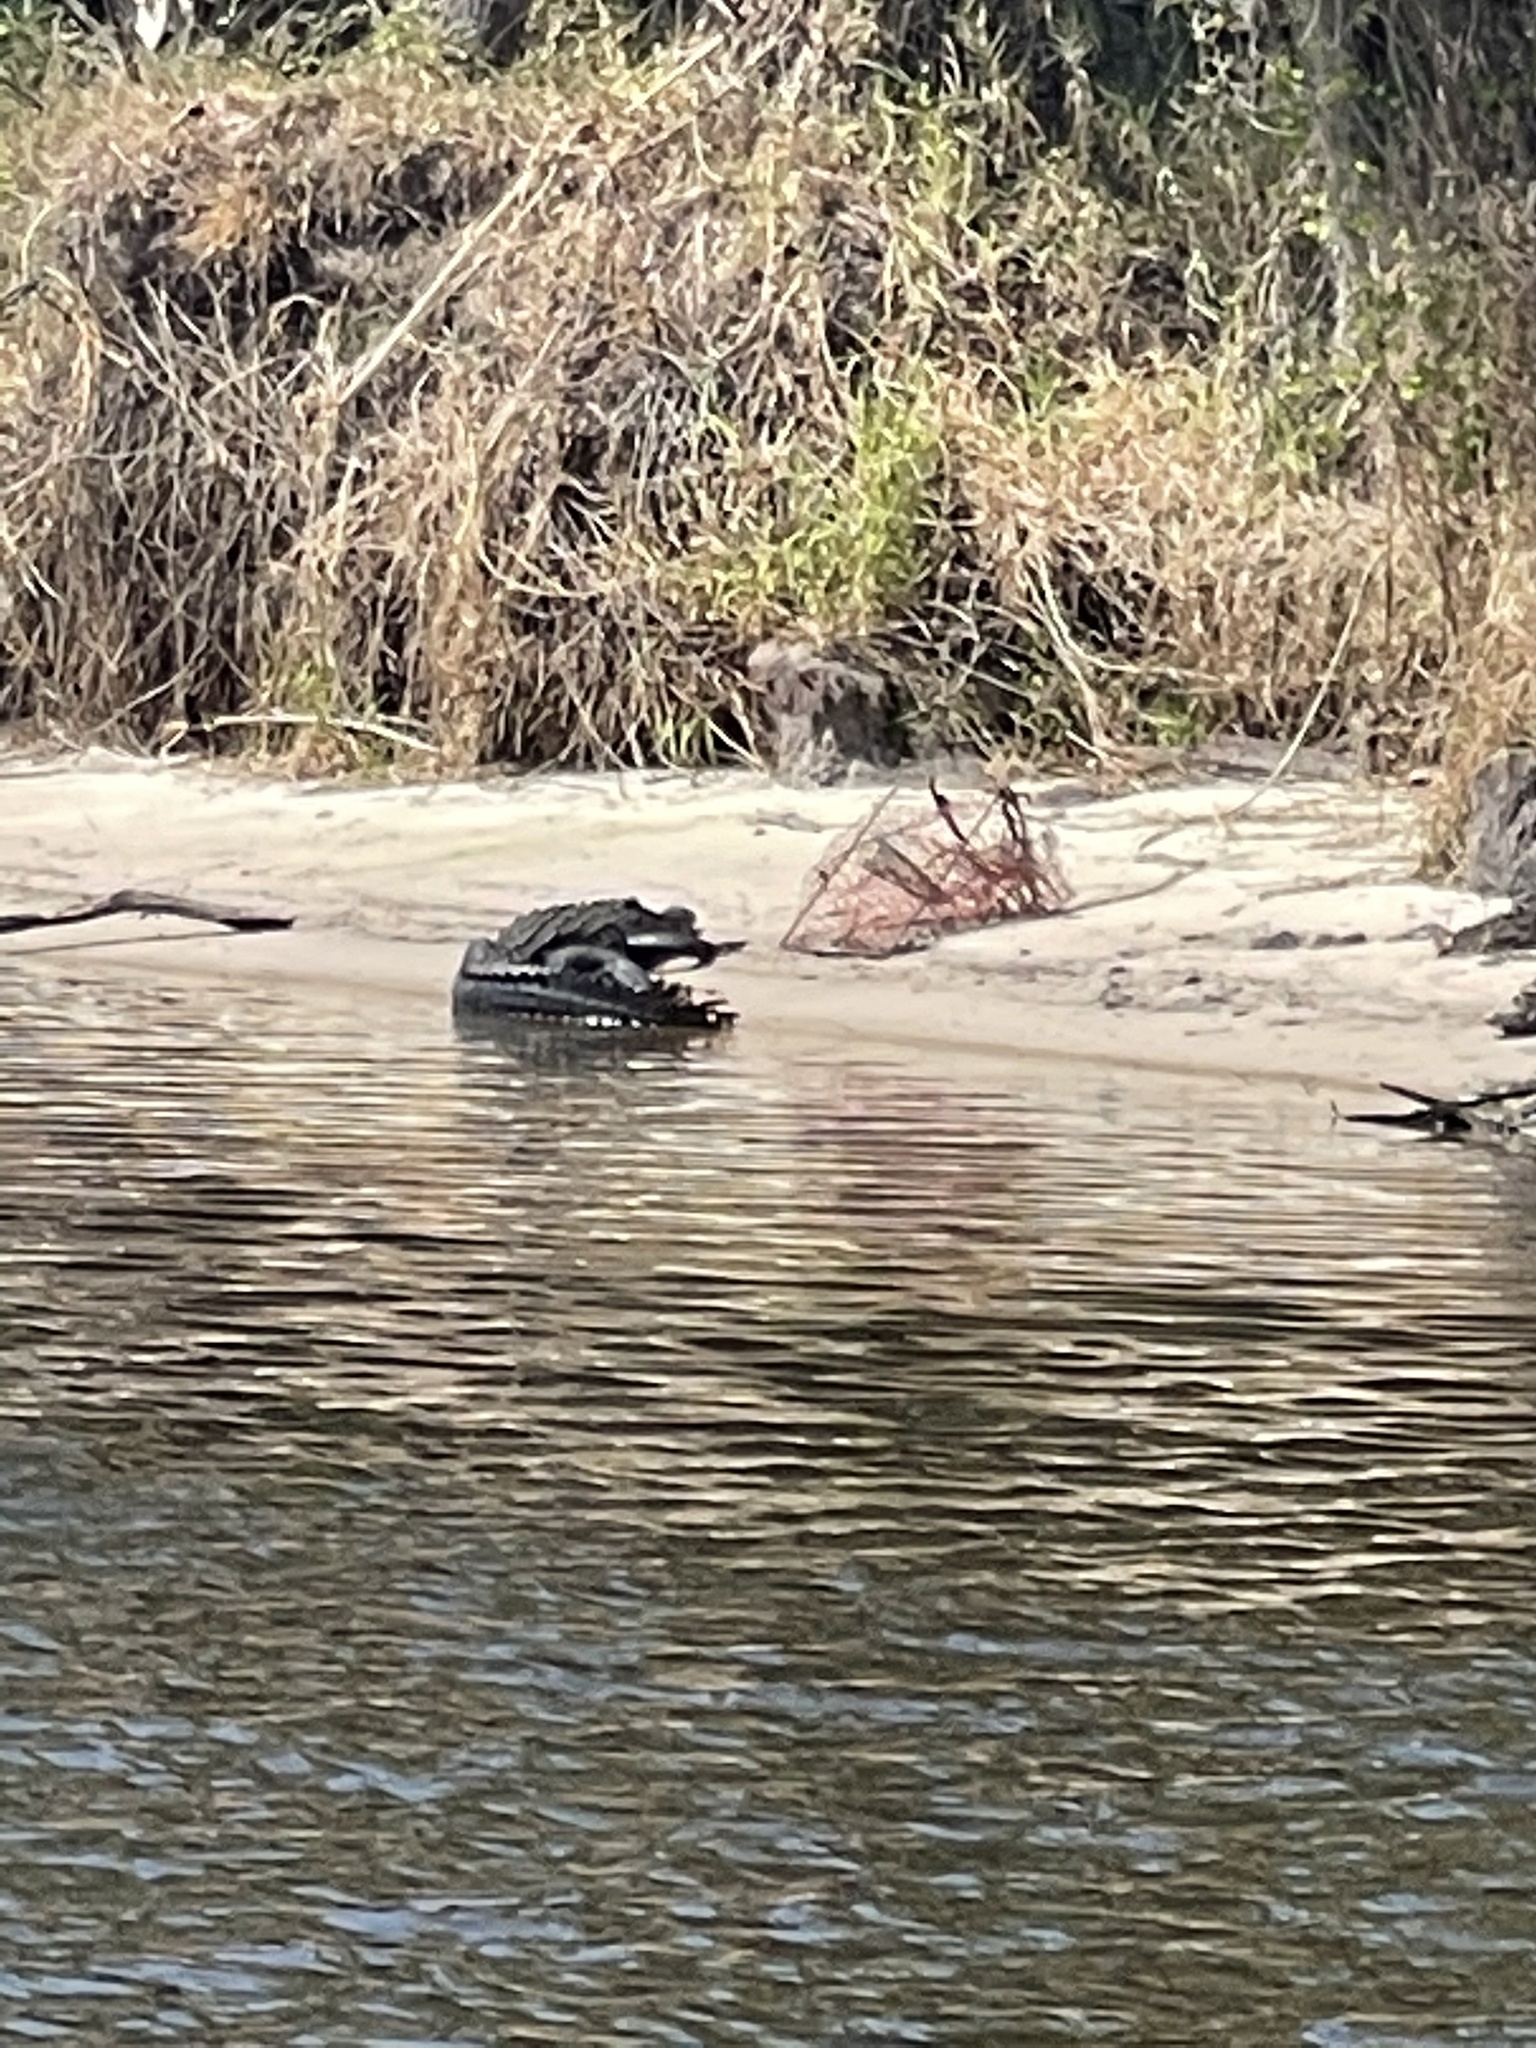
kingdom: Animalia
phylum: Chordata
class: Crocodylia
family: Alligatoridae
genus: Alligator
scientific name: Alligator mississippiensis
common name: American alligator
